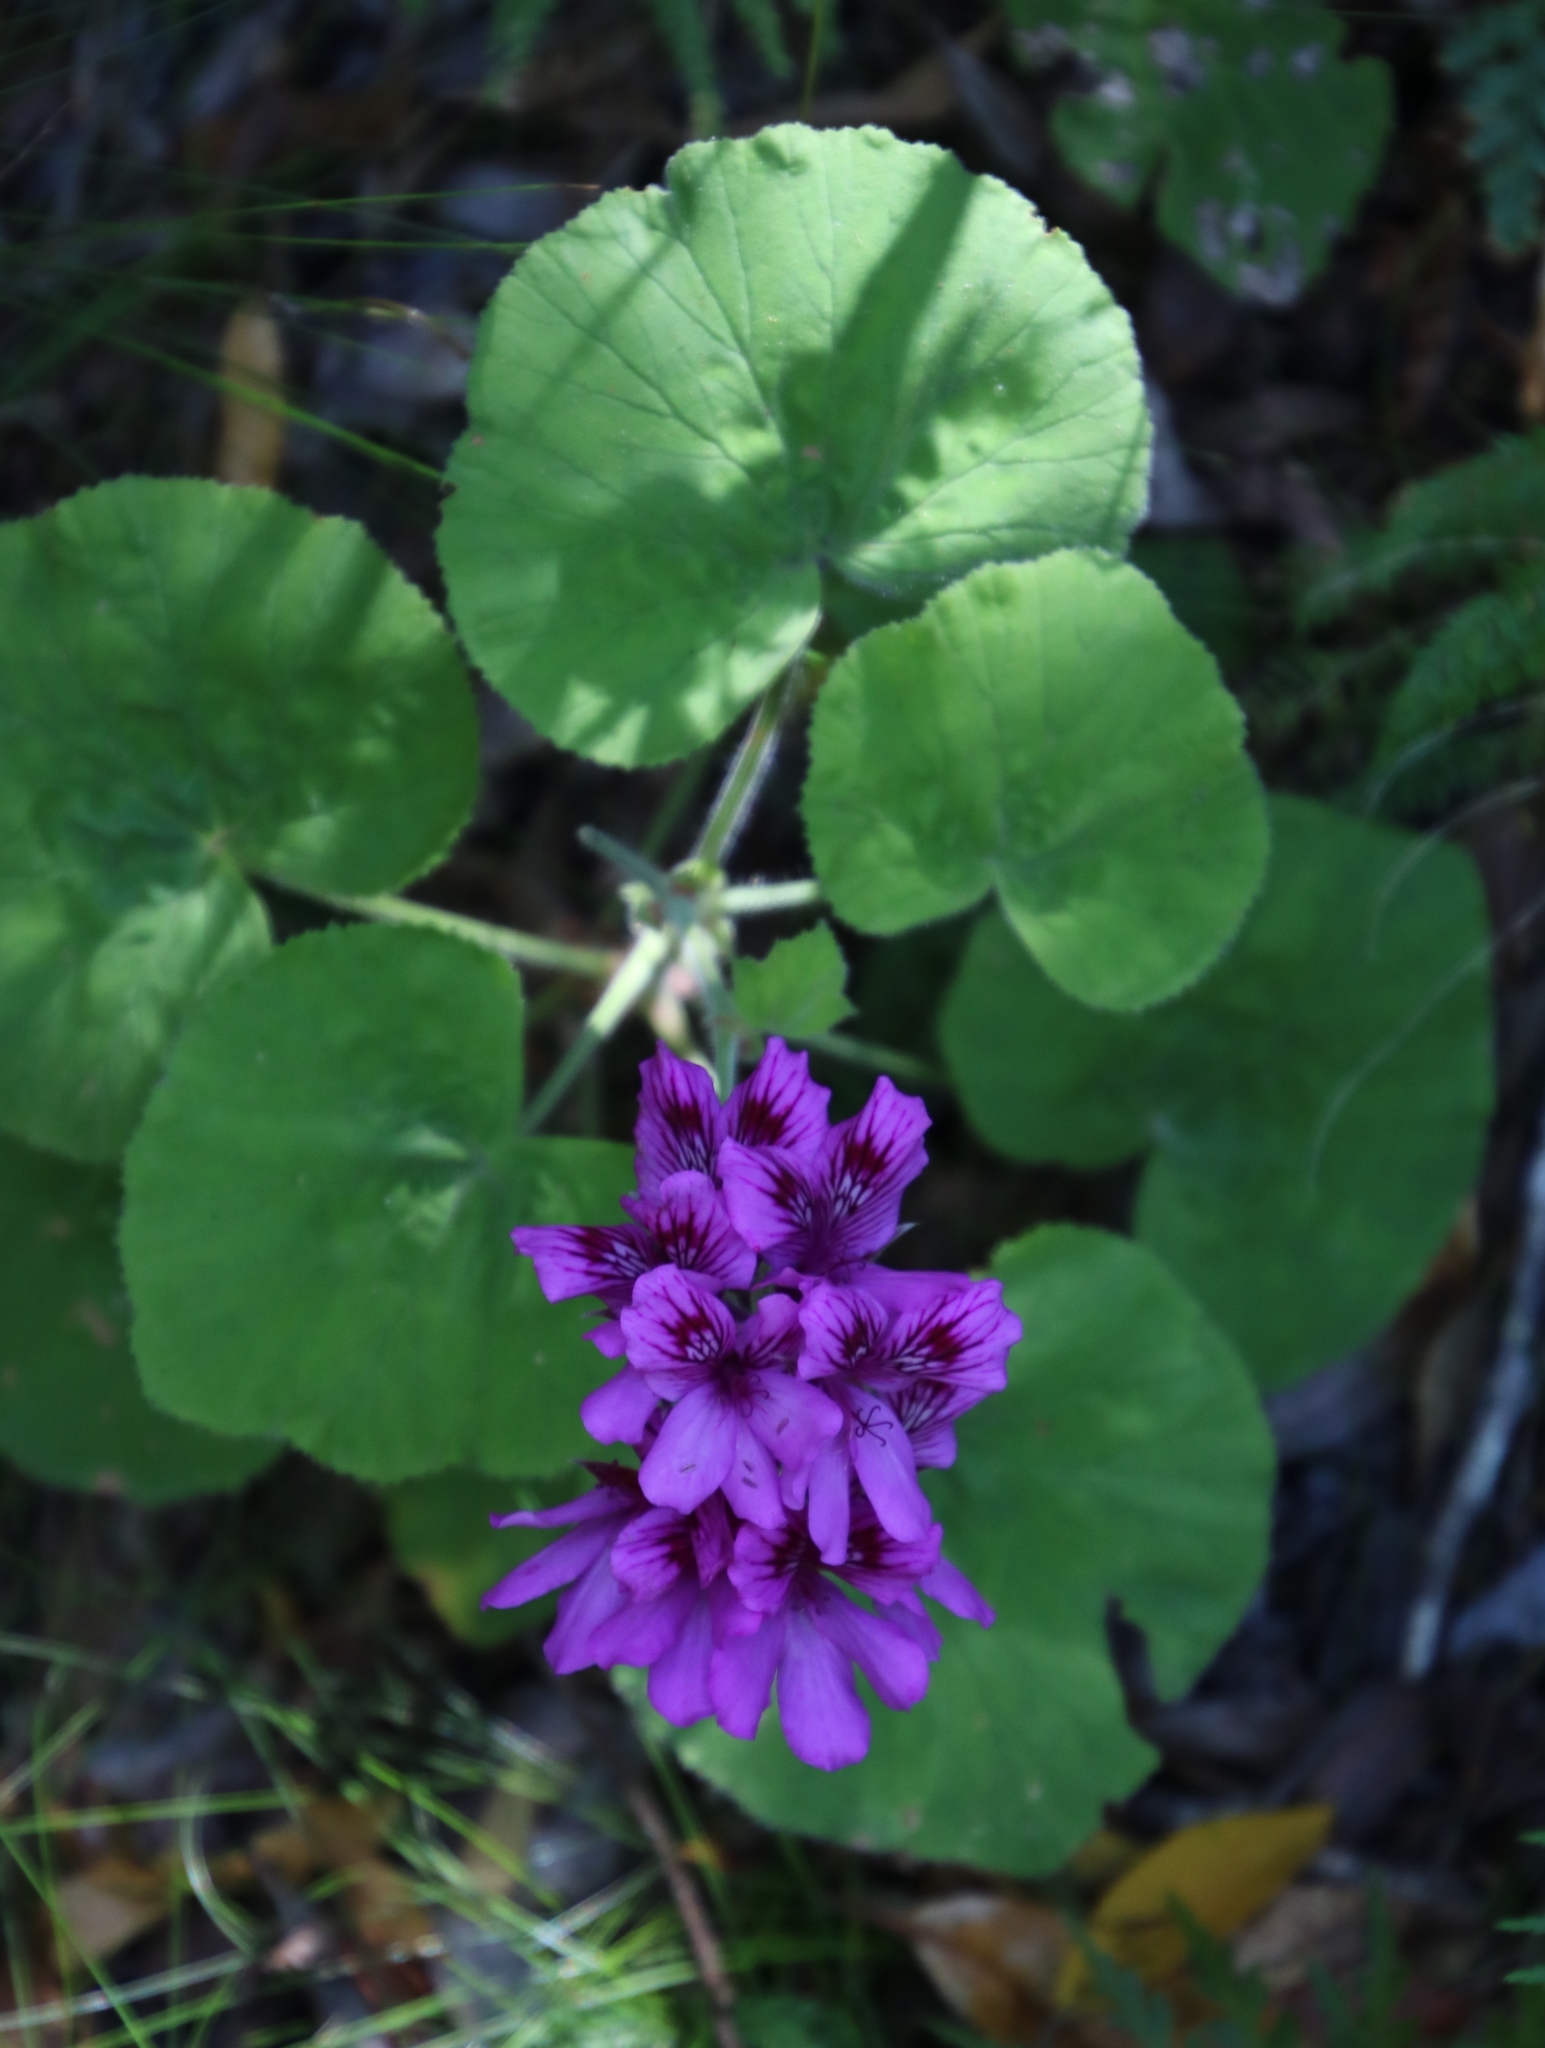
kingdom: Plantae
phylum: Tracheophyta
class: Magnoliopsida
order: Geraniales
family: Geraniaceae
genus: Pelargonium
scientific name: Pelargonium cucullatum
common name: Tree pelargonium
